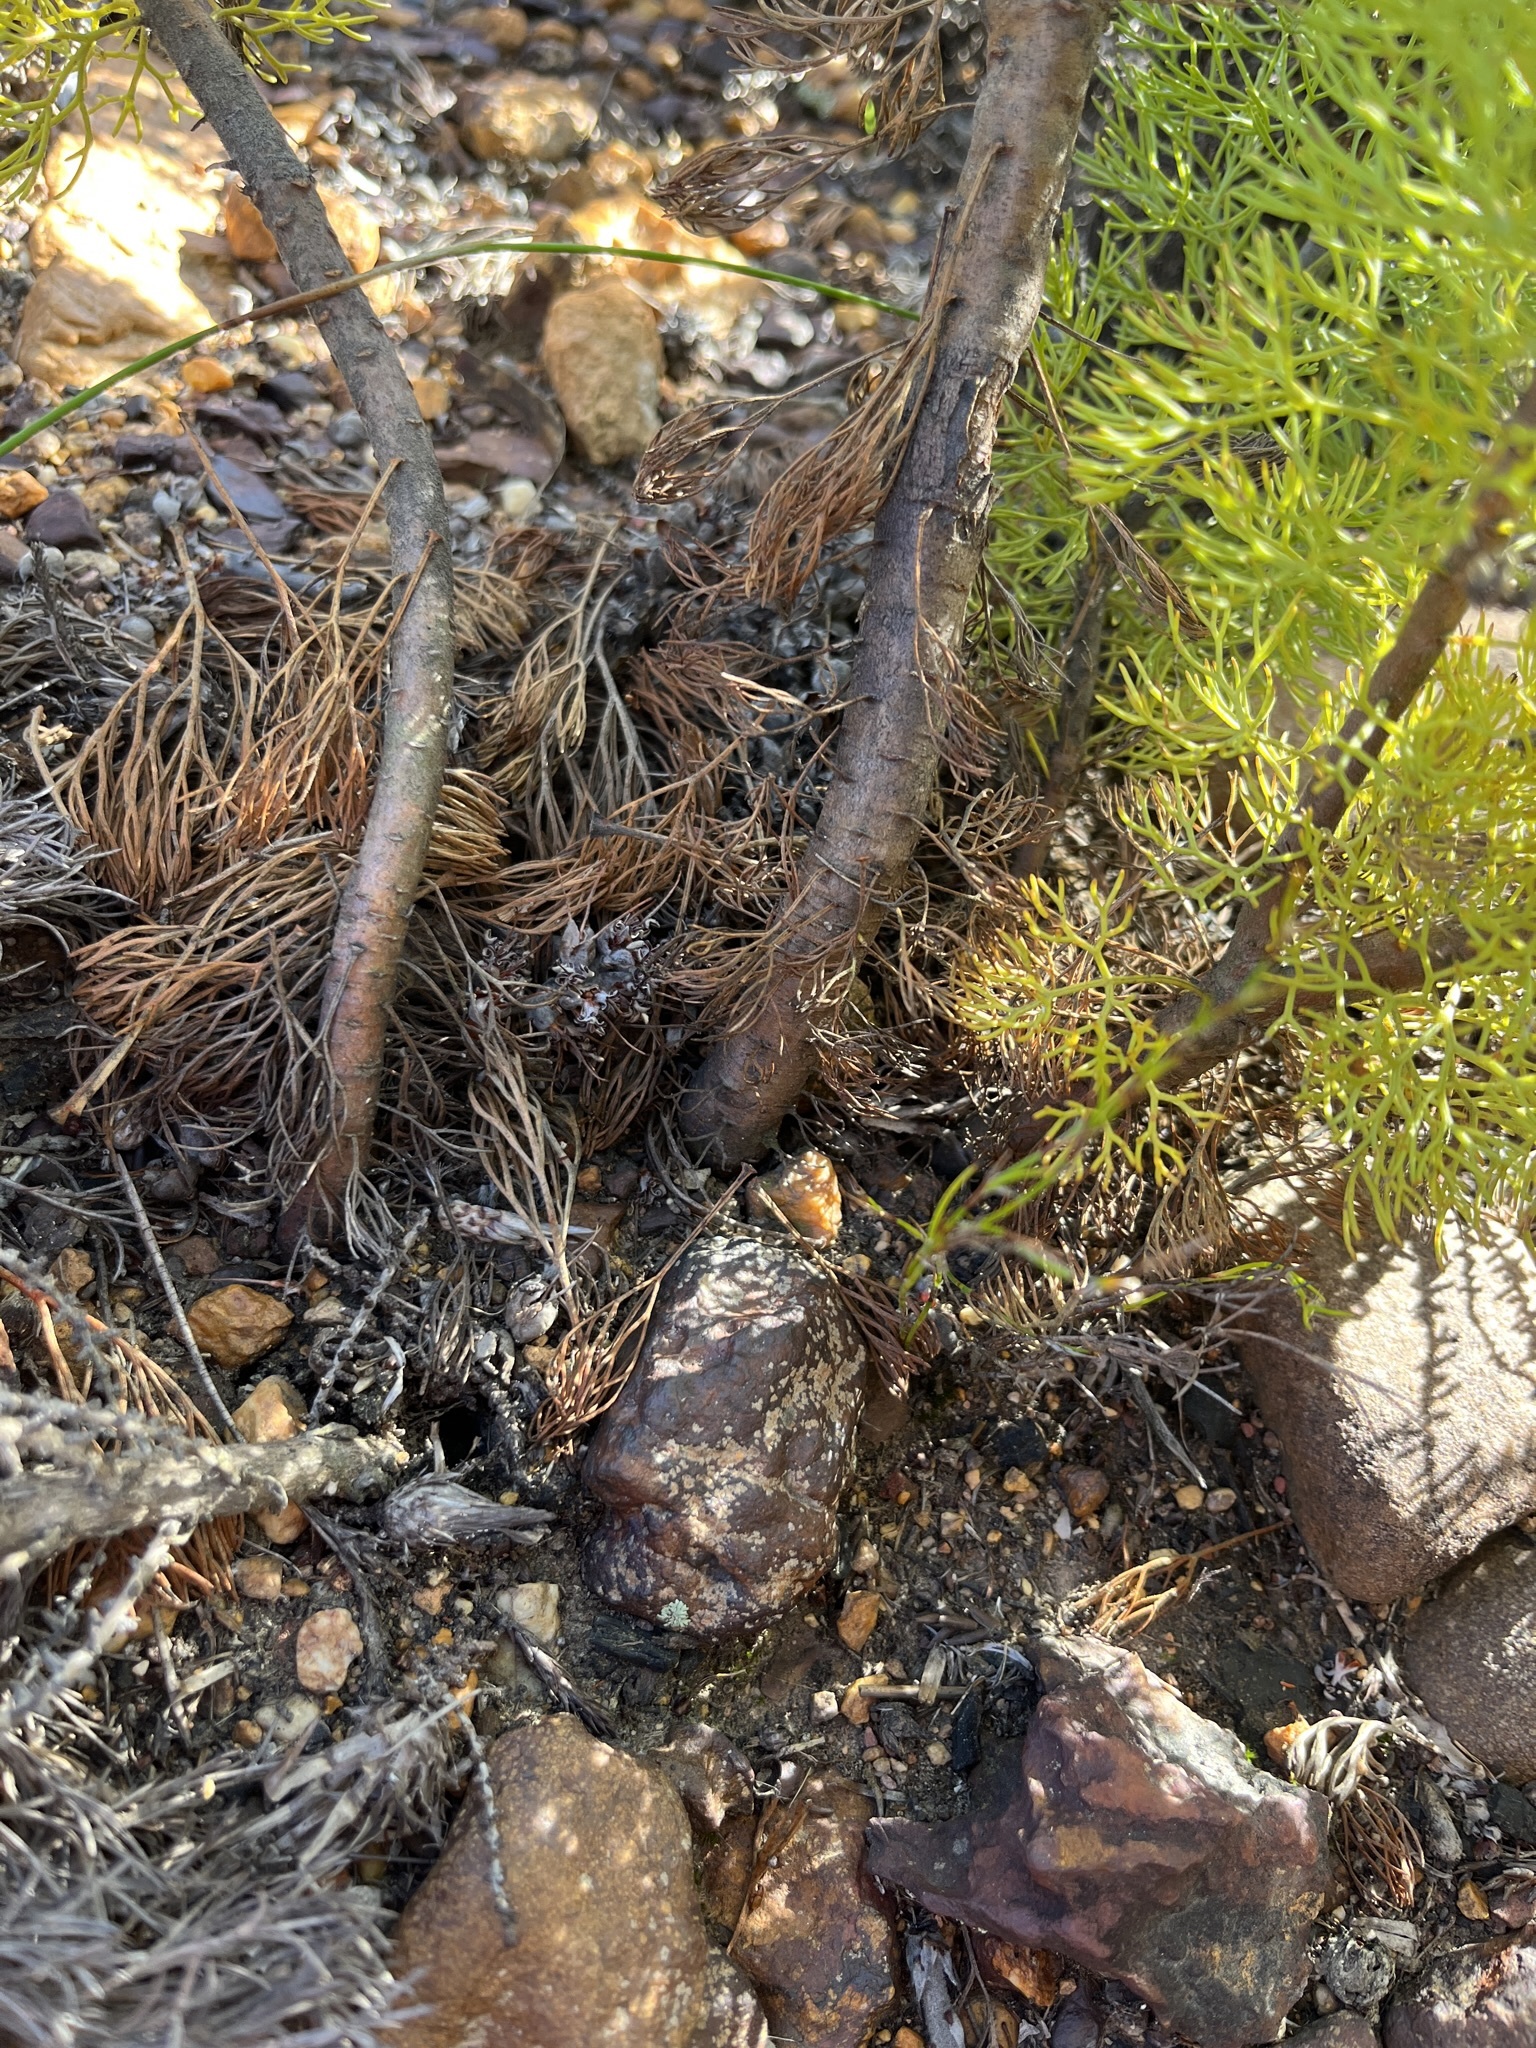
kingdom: Plantae
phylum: Tracheophyta
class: Magnoliopsida
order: Proteales
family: Proteaceae
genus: Paranomus
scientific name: Paranomus bolusii
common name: Overberg sceptre
